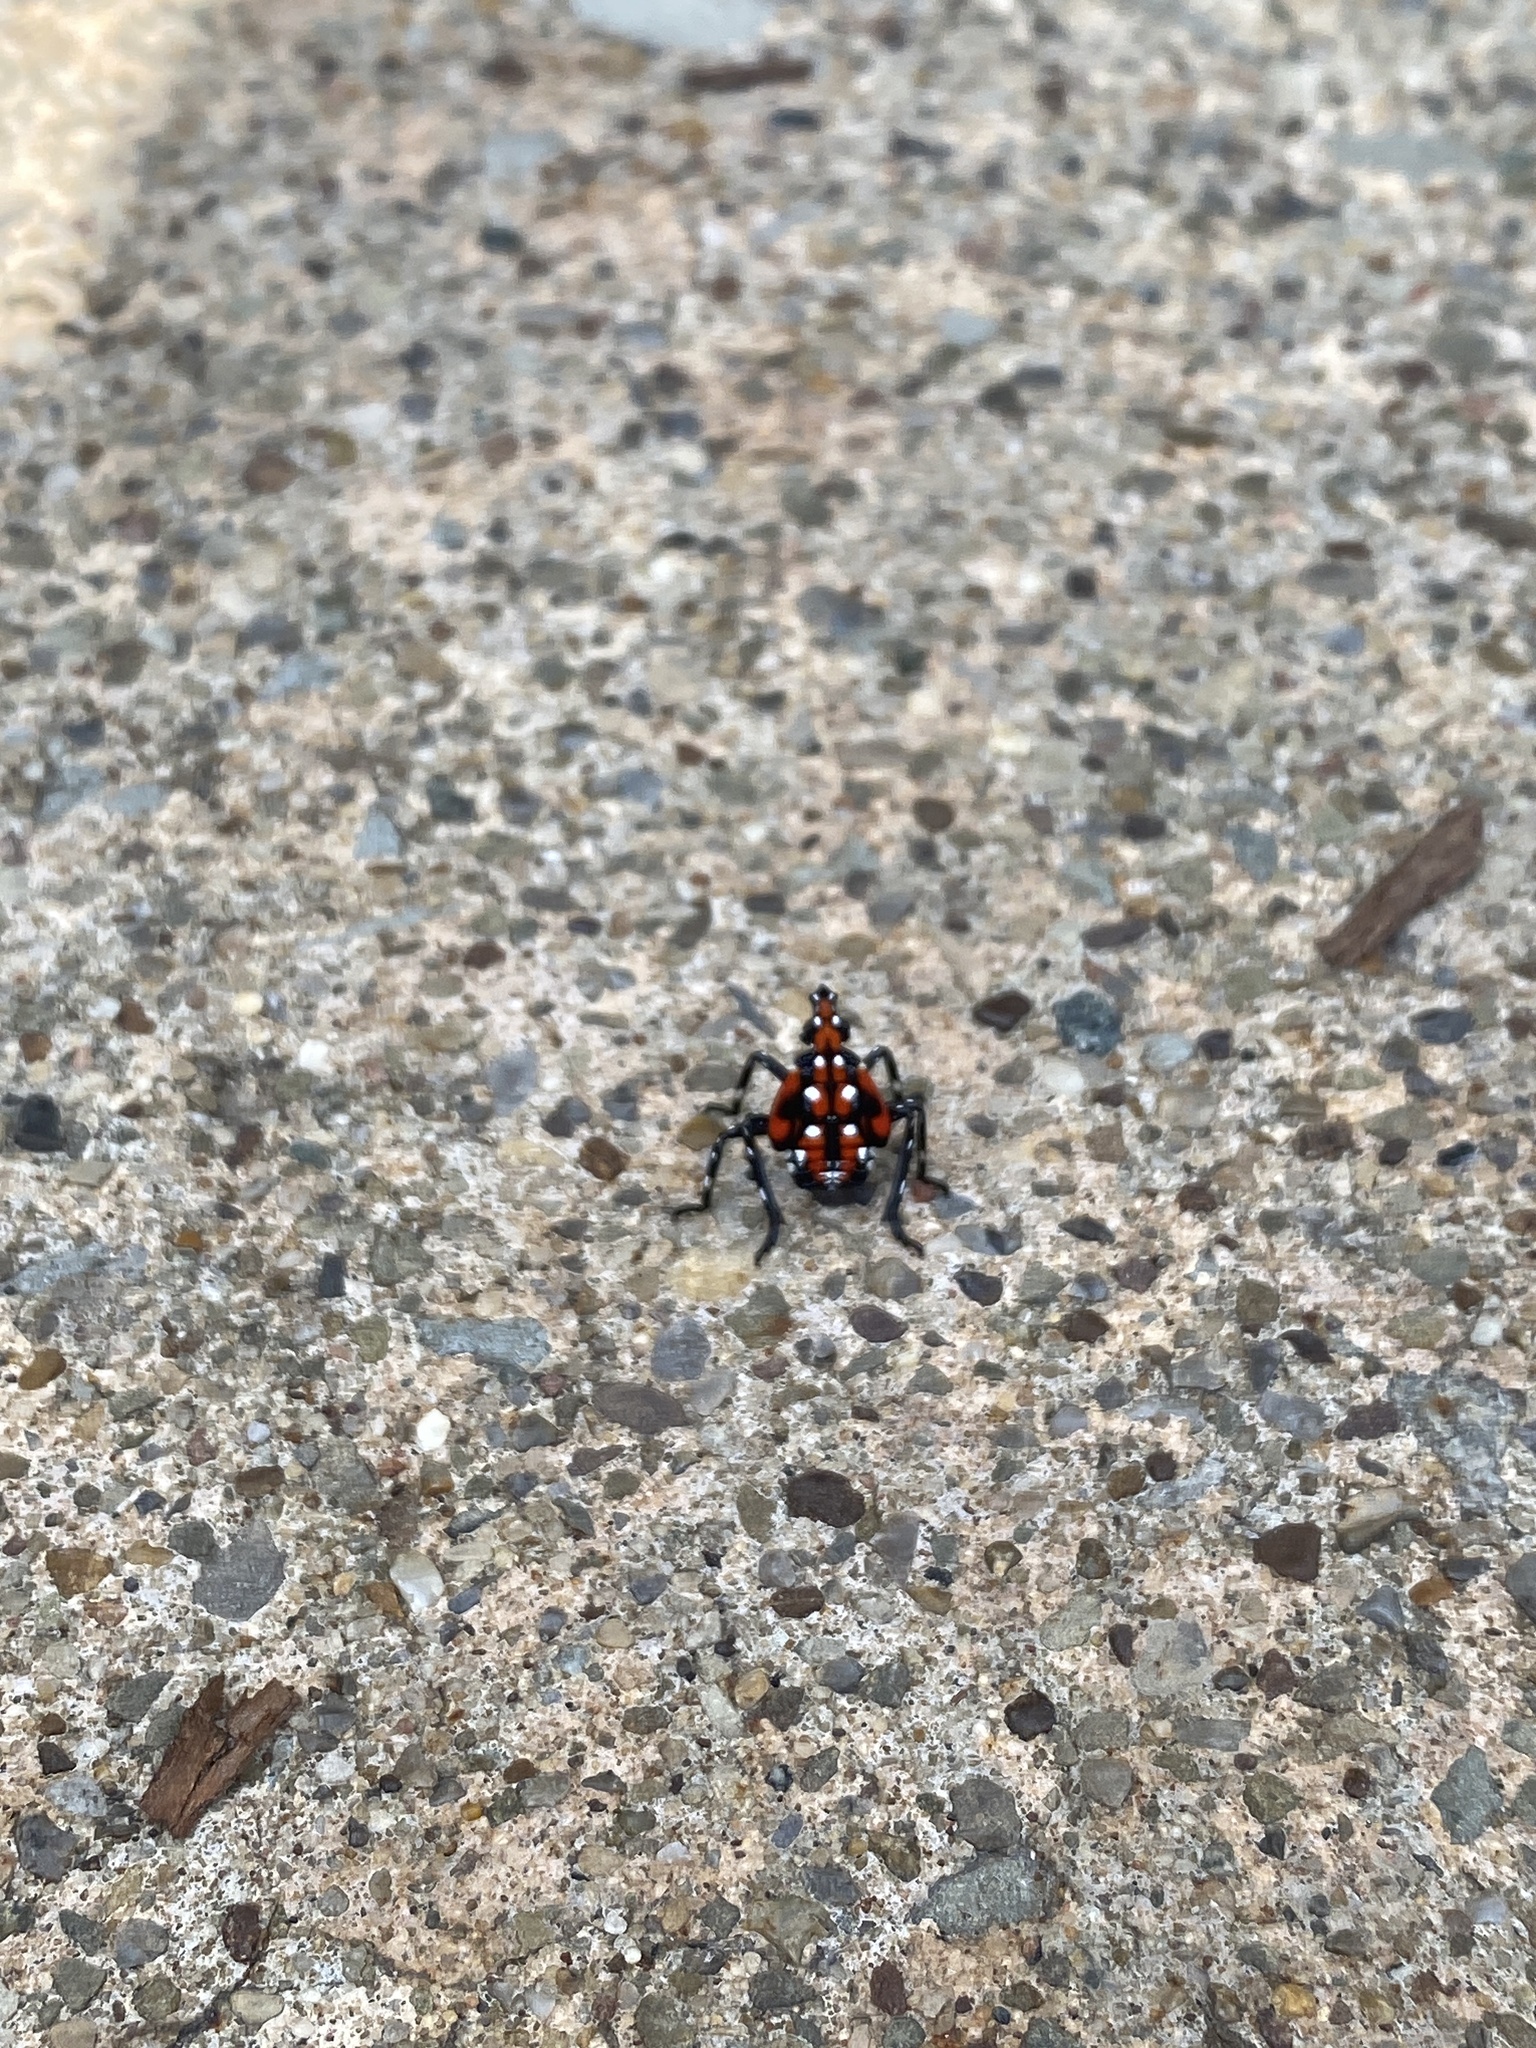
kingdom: Animalia
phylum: Arthropoda
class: Insecta
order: Hemiptera
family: Fulgoridae
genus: Lycorma
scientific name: Lycorma delicatula
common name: Spotted lanternfly
